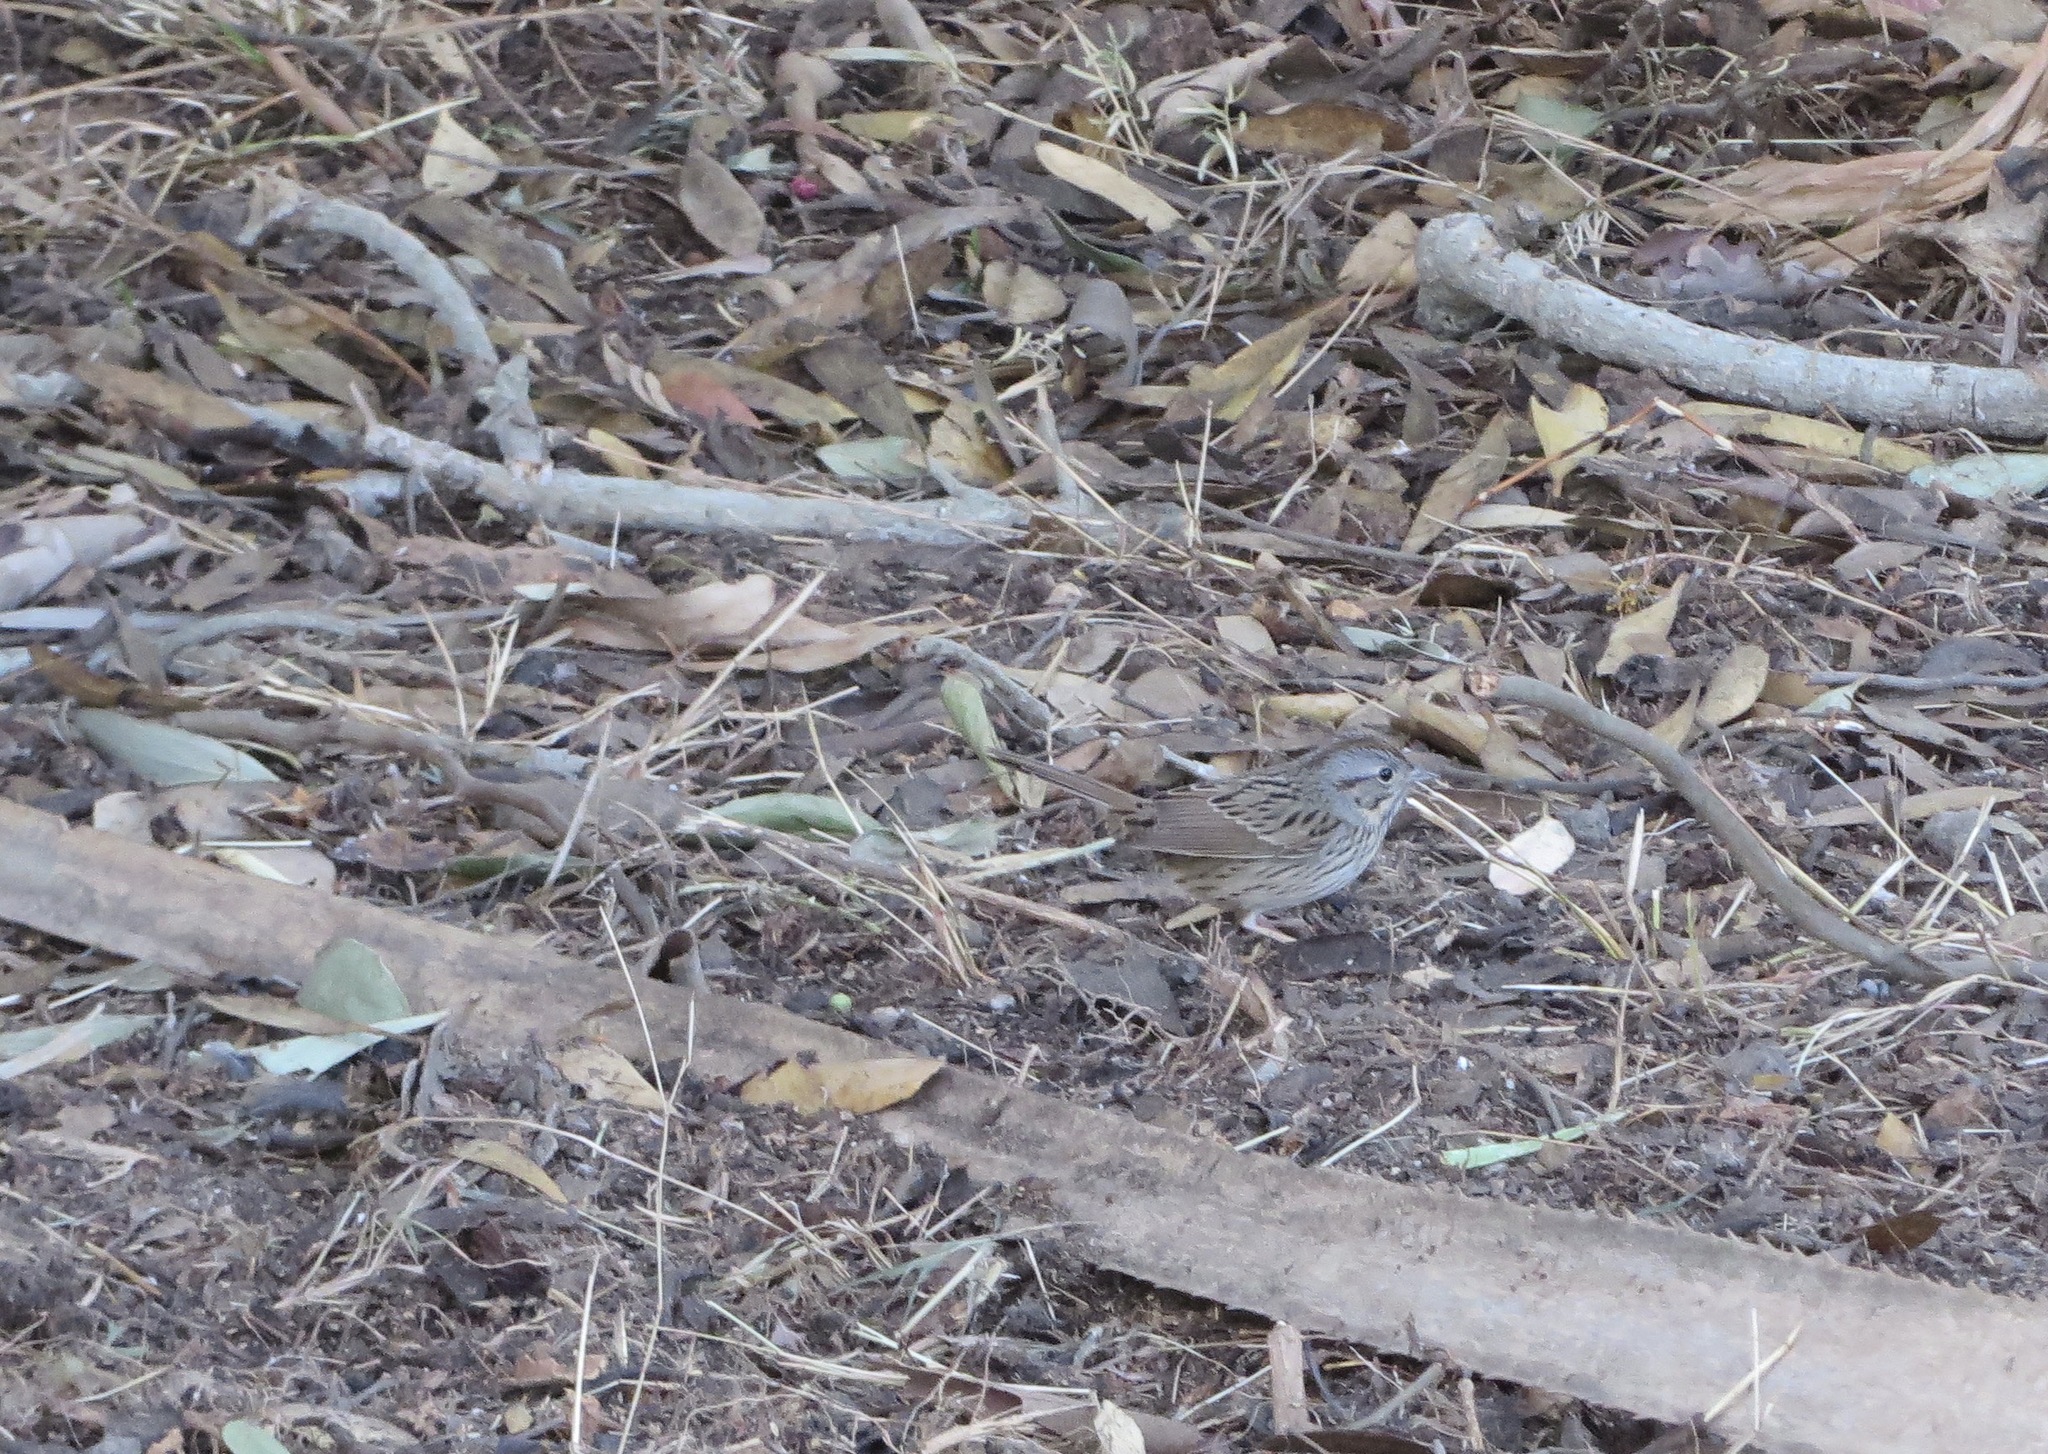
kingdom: Animalia
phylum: Chordata
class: Aves
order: Passeriformes
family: Passerellidae
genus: Melospiza
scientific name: Melospiza lincolnii
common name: Lincoln's sparrow
